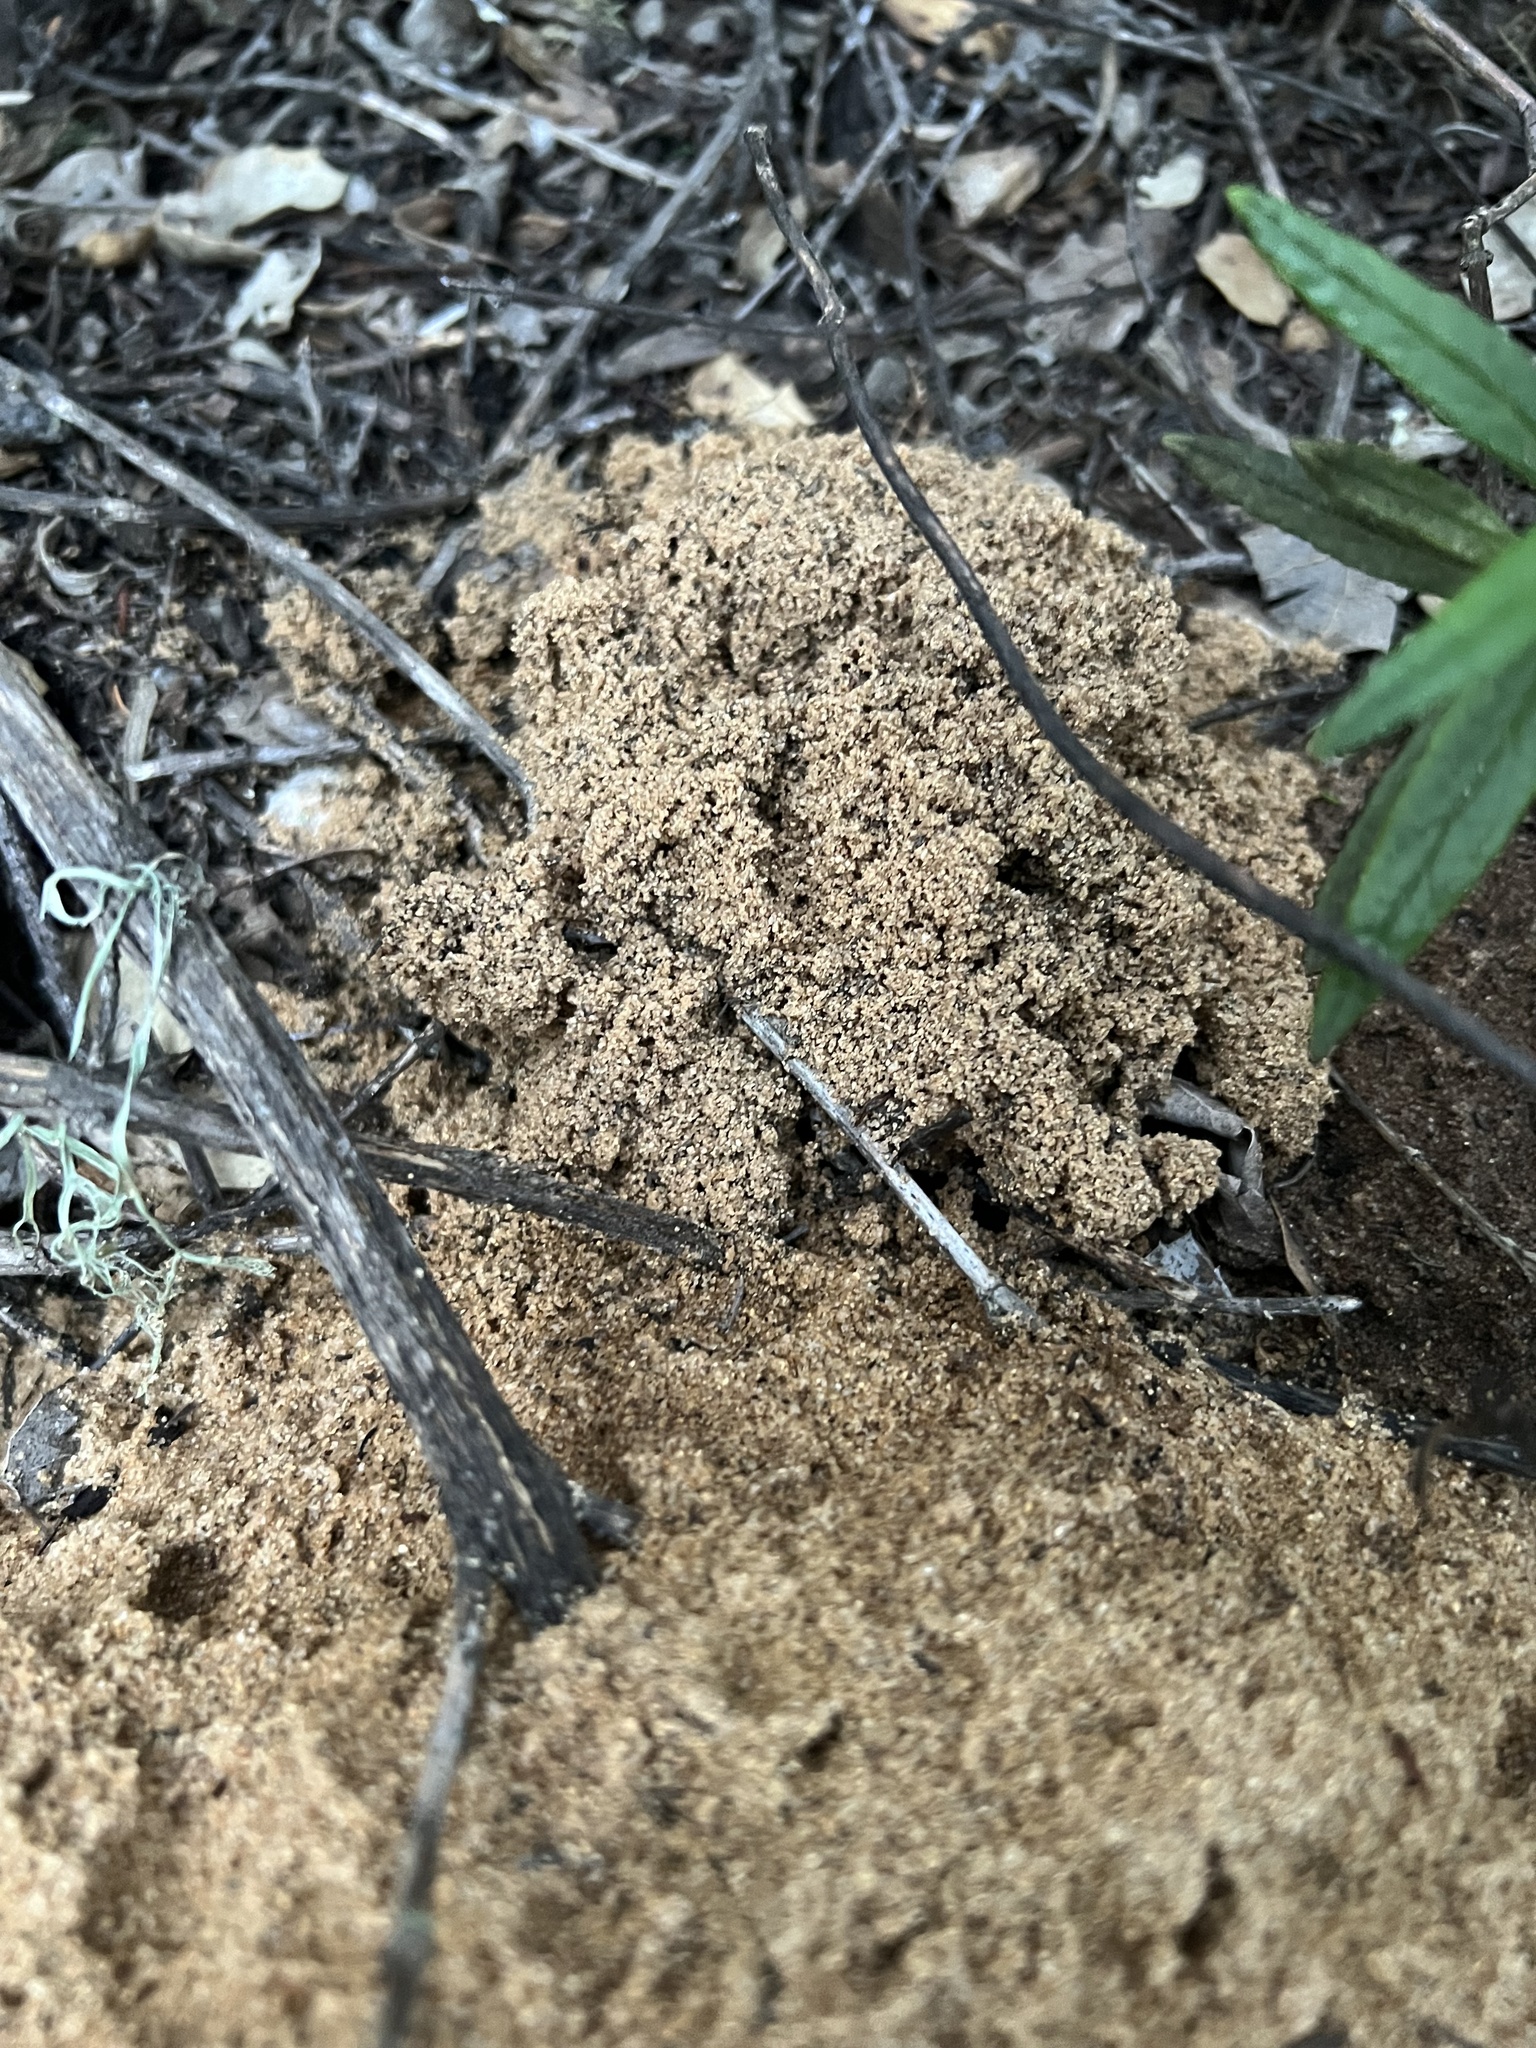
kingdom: Animalia
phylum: Arthropoda
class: Insecta
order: Coleoptera
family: Geotrupidae
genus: Ceratophyus
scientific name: Ceratophyus gopherinus
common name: Scarab beetle
